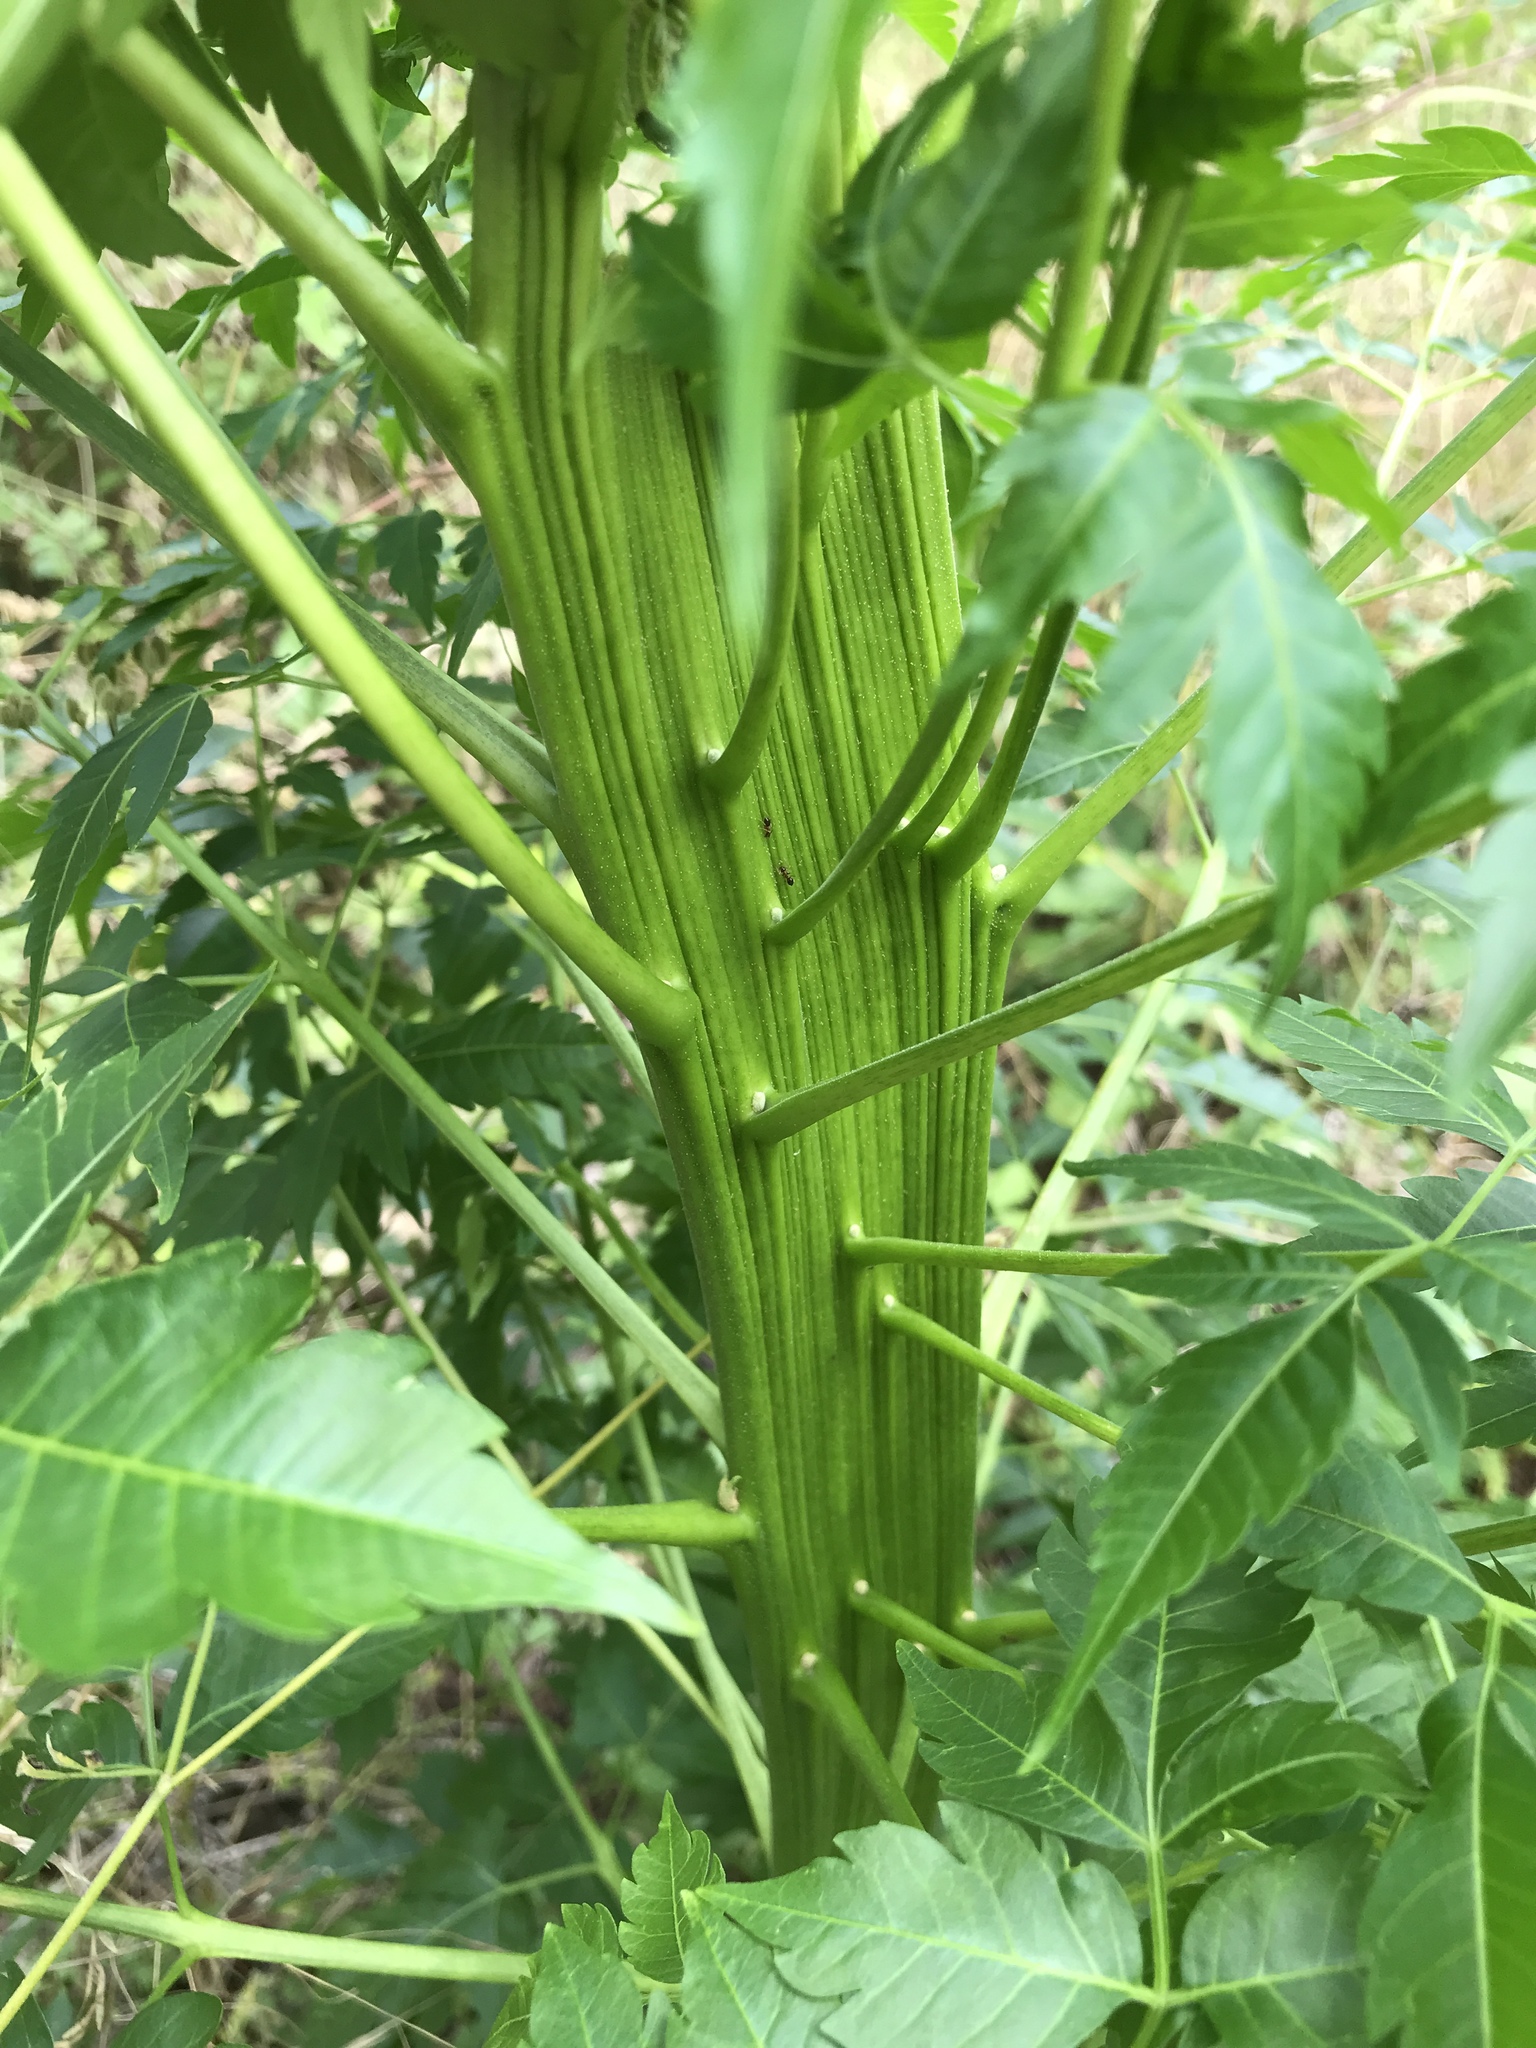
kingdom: Plantae
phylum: Tracheophyta
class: Magnoliopsida
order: Sapindales
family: Meliaceae
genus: Melia
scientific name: Melia azedarach
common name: Chinaberrytree
